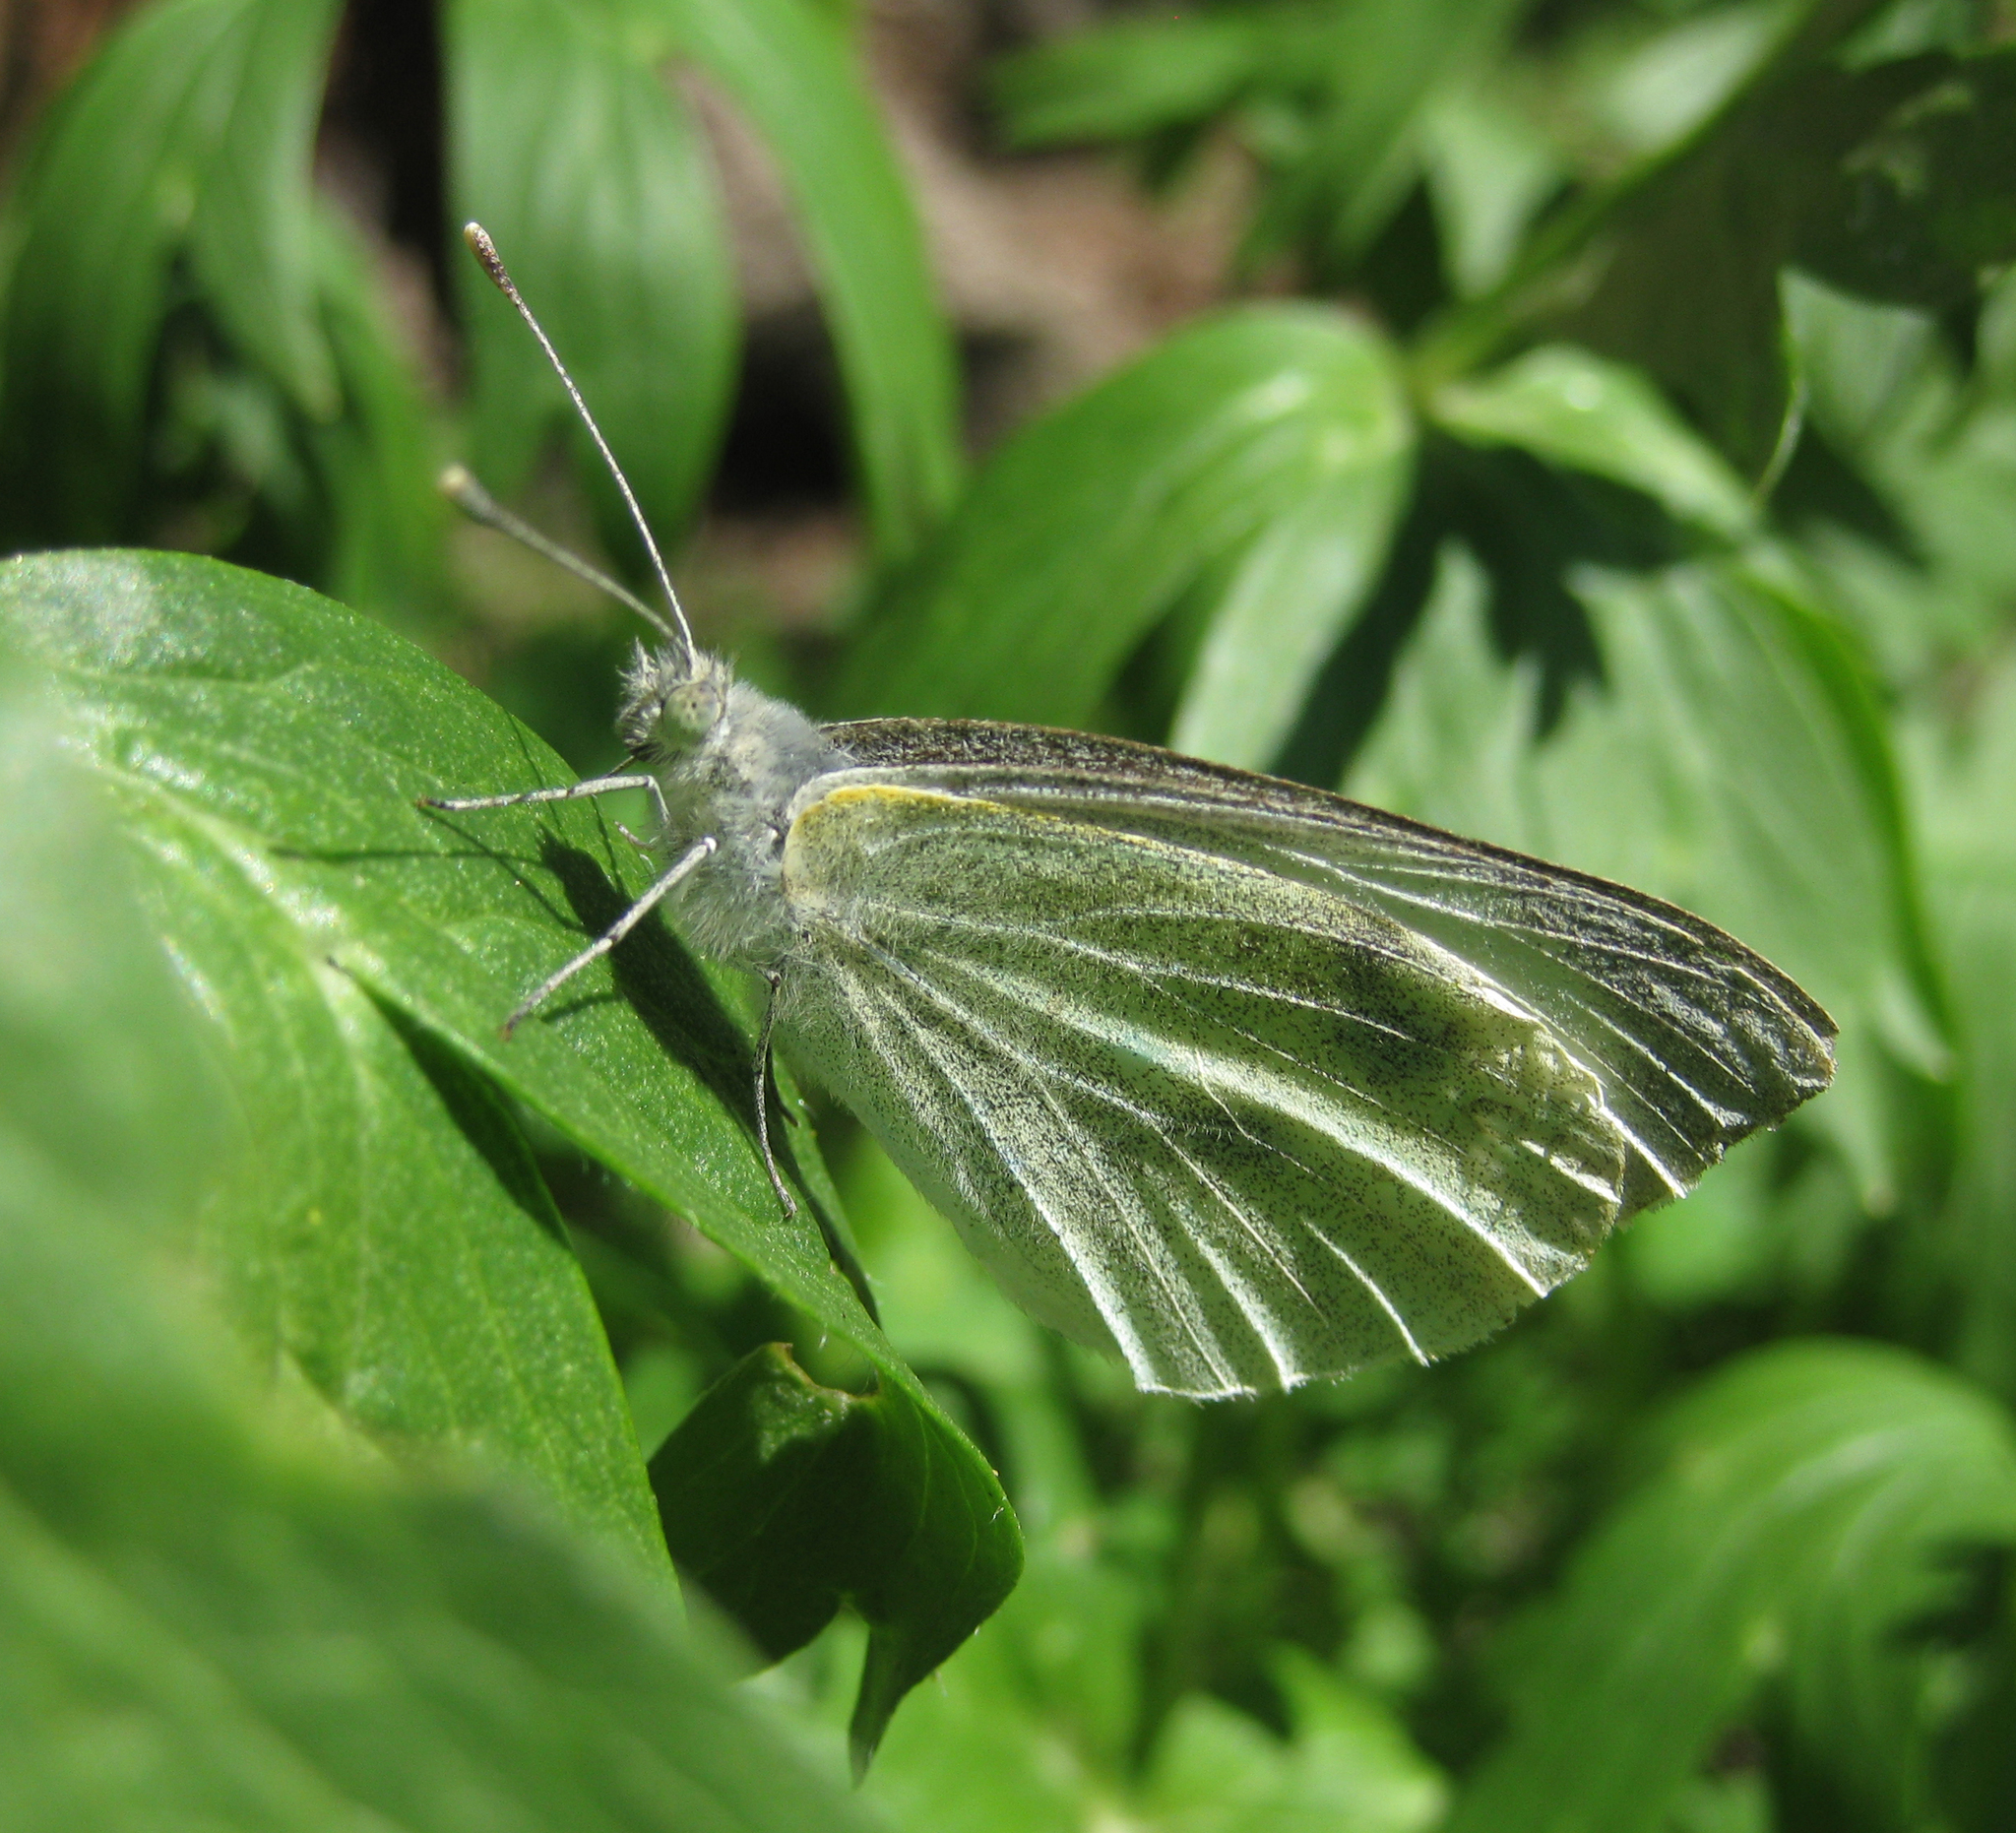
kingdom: Animalia
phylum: Arthropoda
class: Insecta
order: Lepidoptera
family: Pieridae
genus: Pieris
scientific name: Pieris brassicae
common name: Large white
